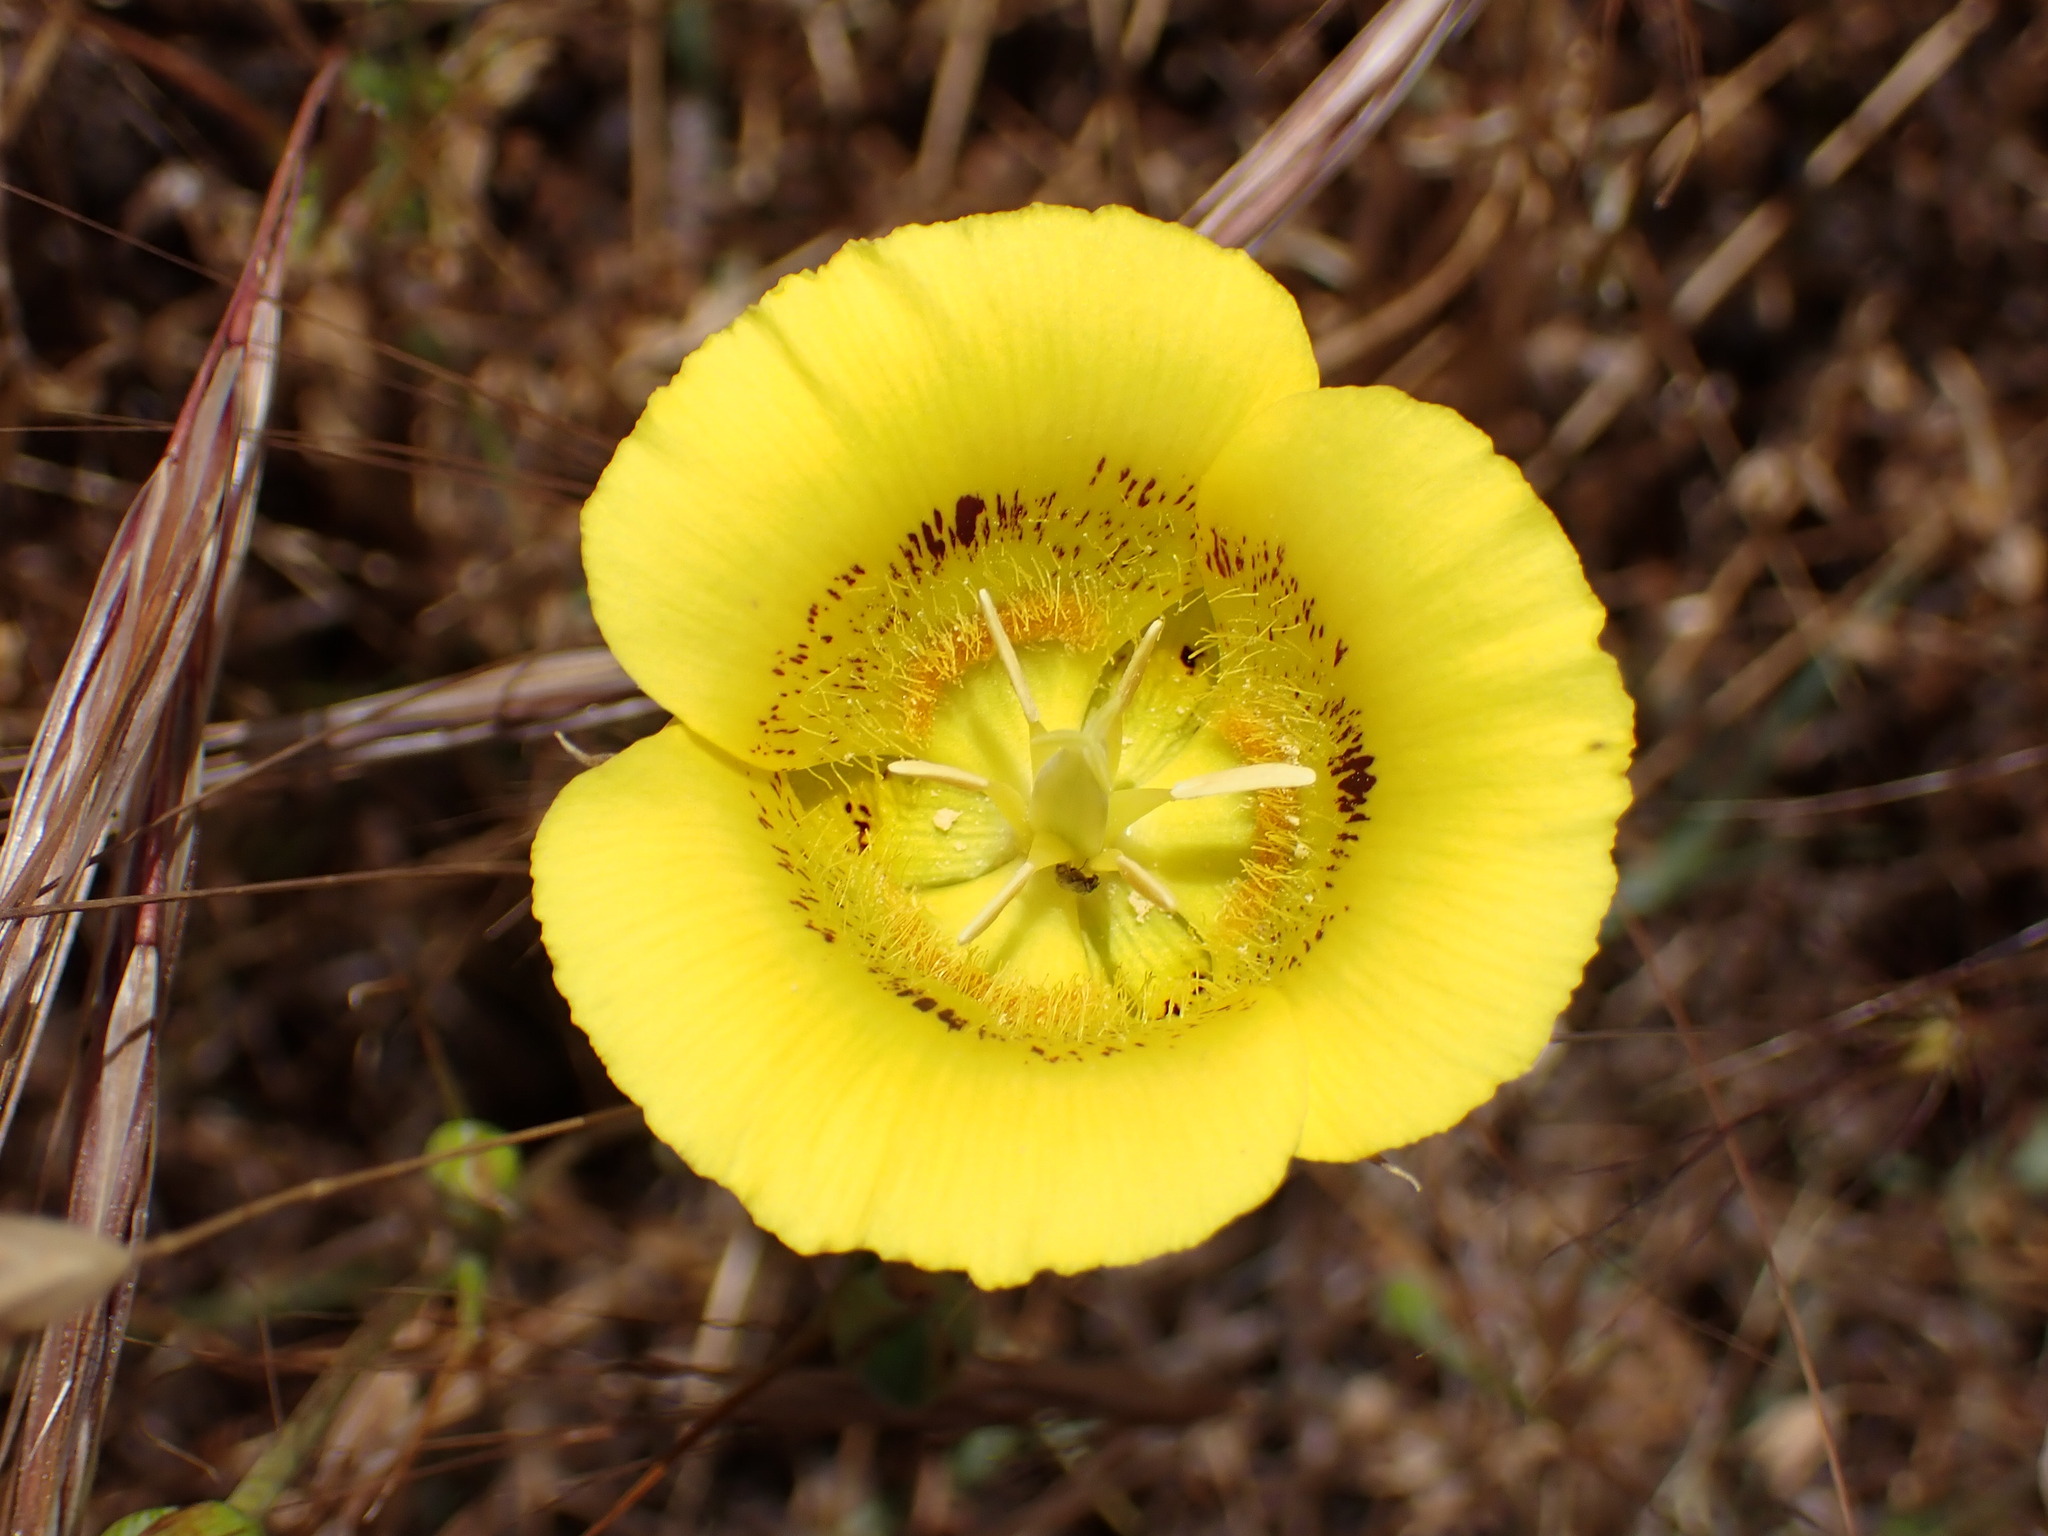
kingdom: Plantae
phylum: Tracheophyta
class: Liliopsida
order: Liliales
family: Liliaceae
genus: Calochortus
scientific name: Calochortus luteus
